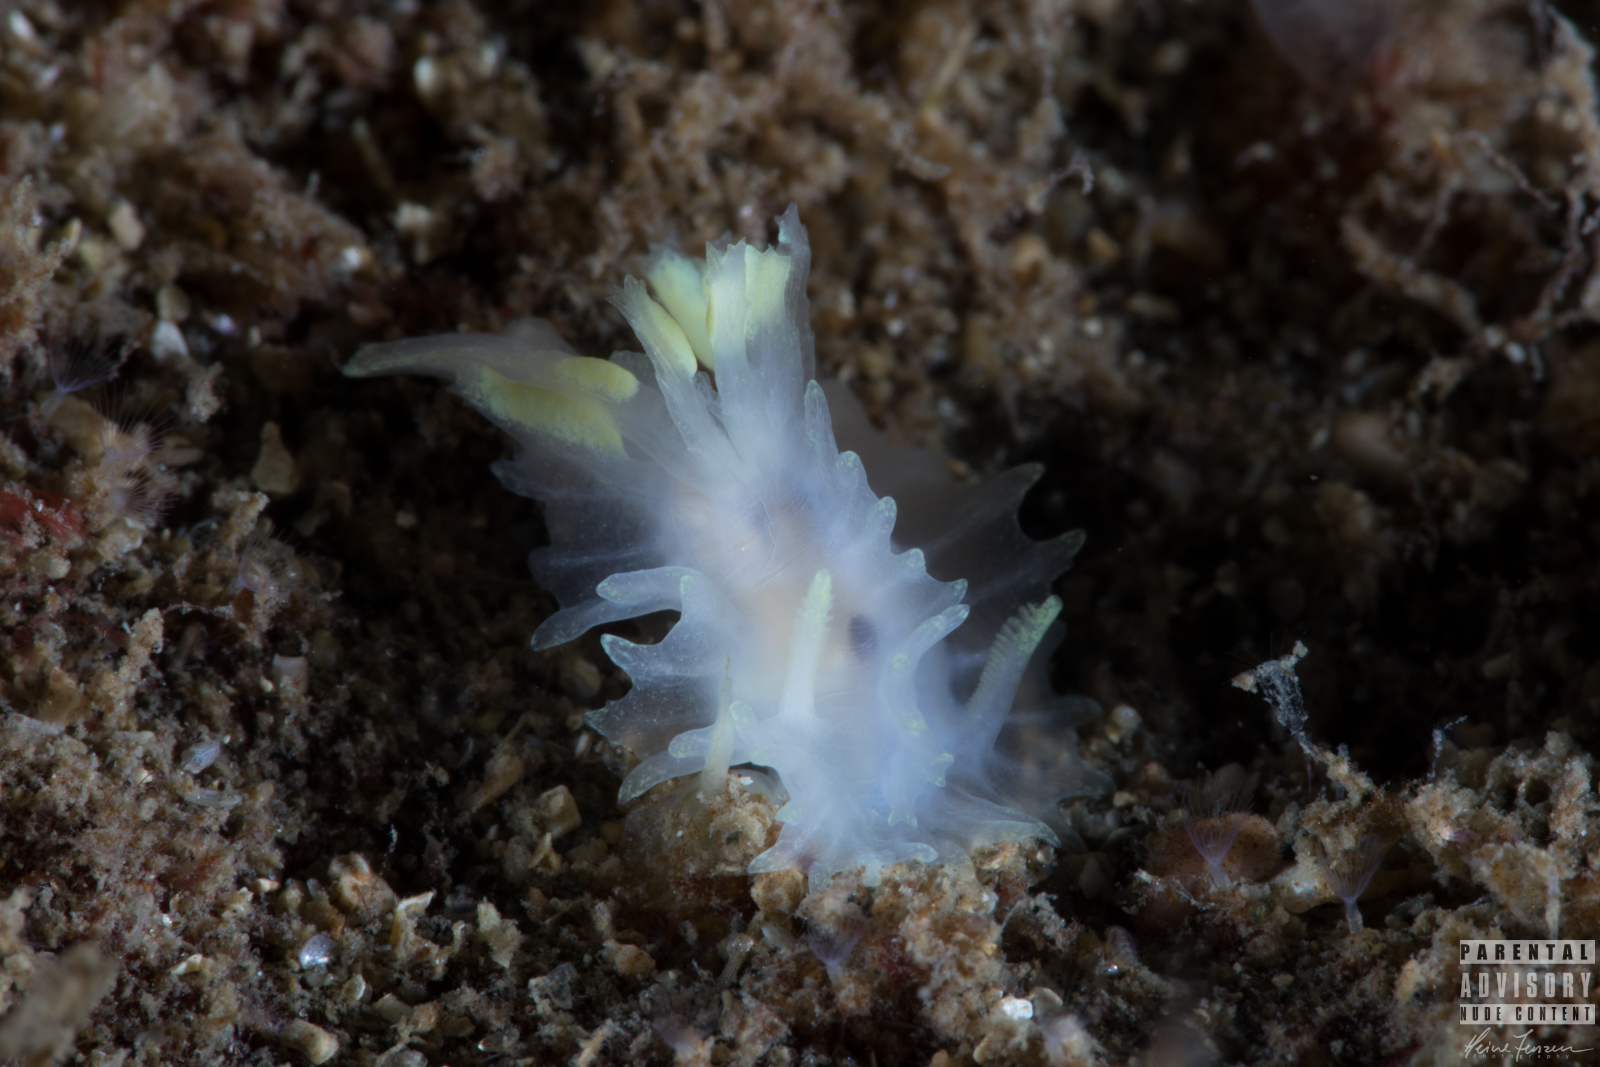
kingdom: Animalia
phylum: Mollusca
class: Gastropoda
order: Nudibranchia
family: Goniodorididae
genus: Lophodoris
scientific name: Lophodoris danielsseni
